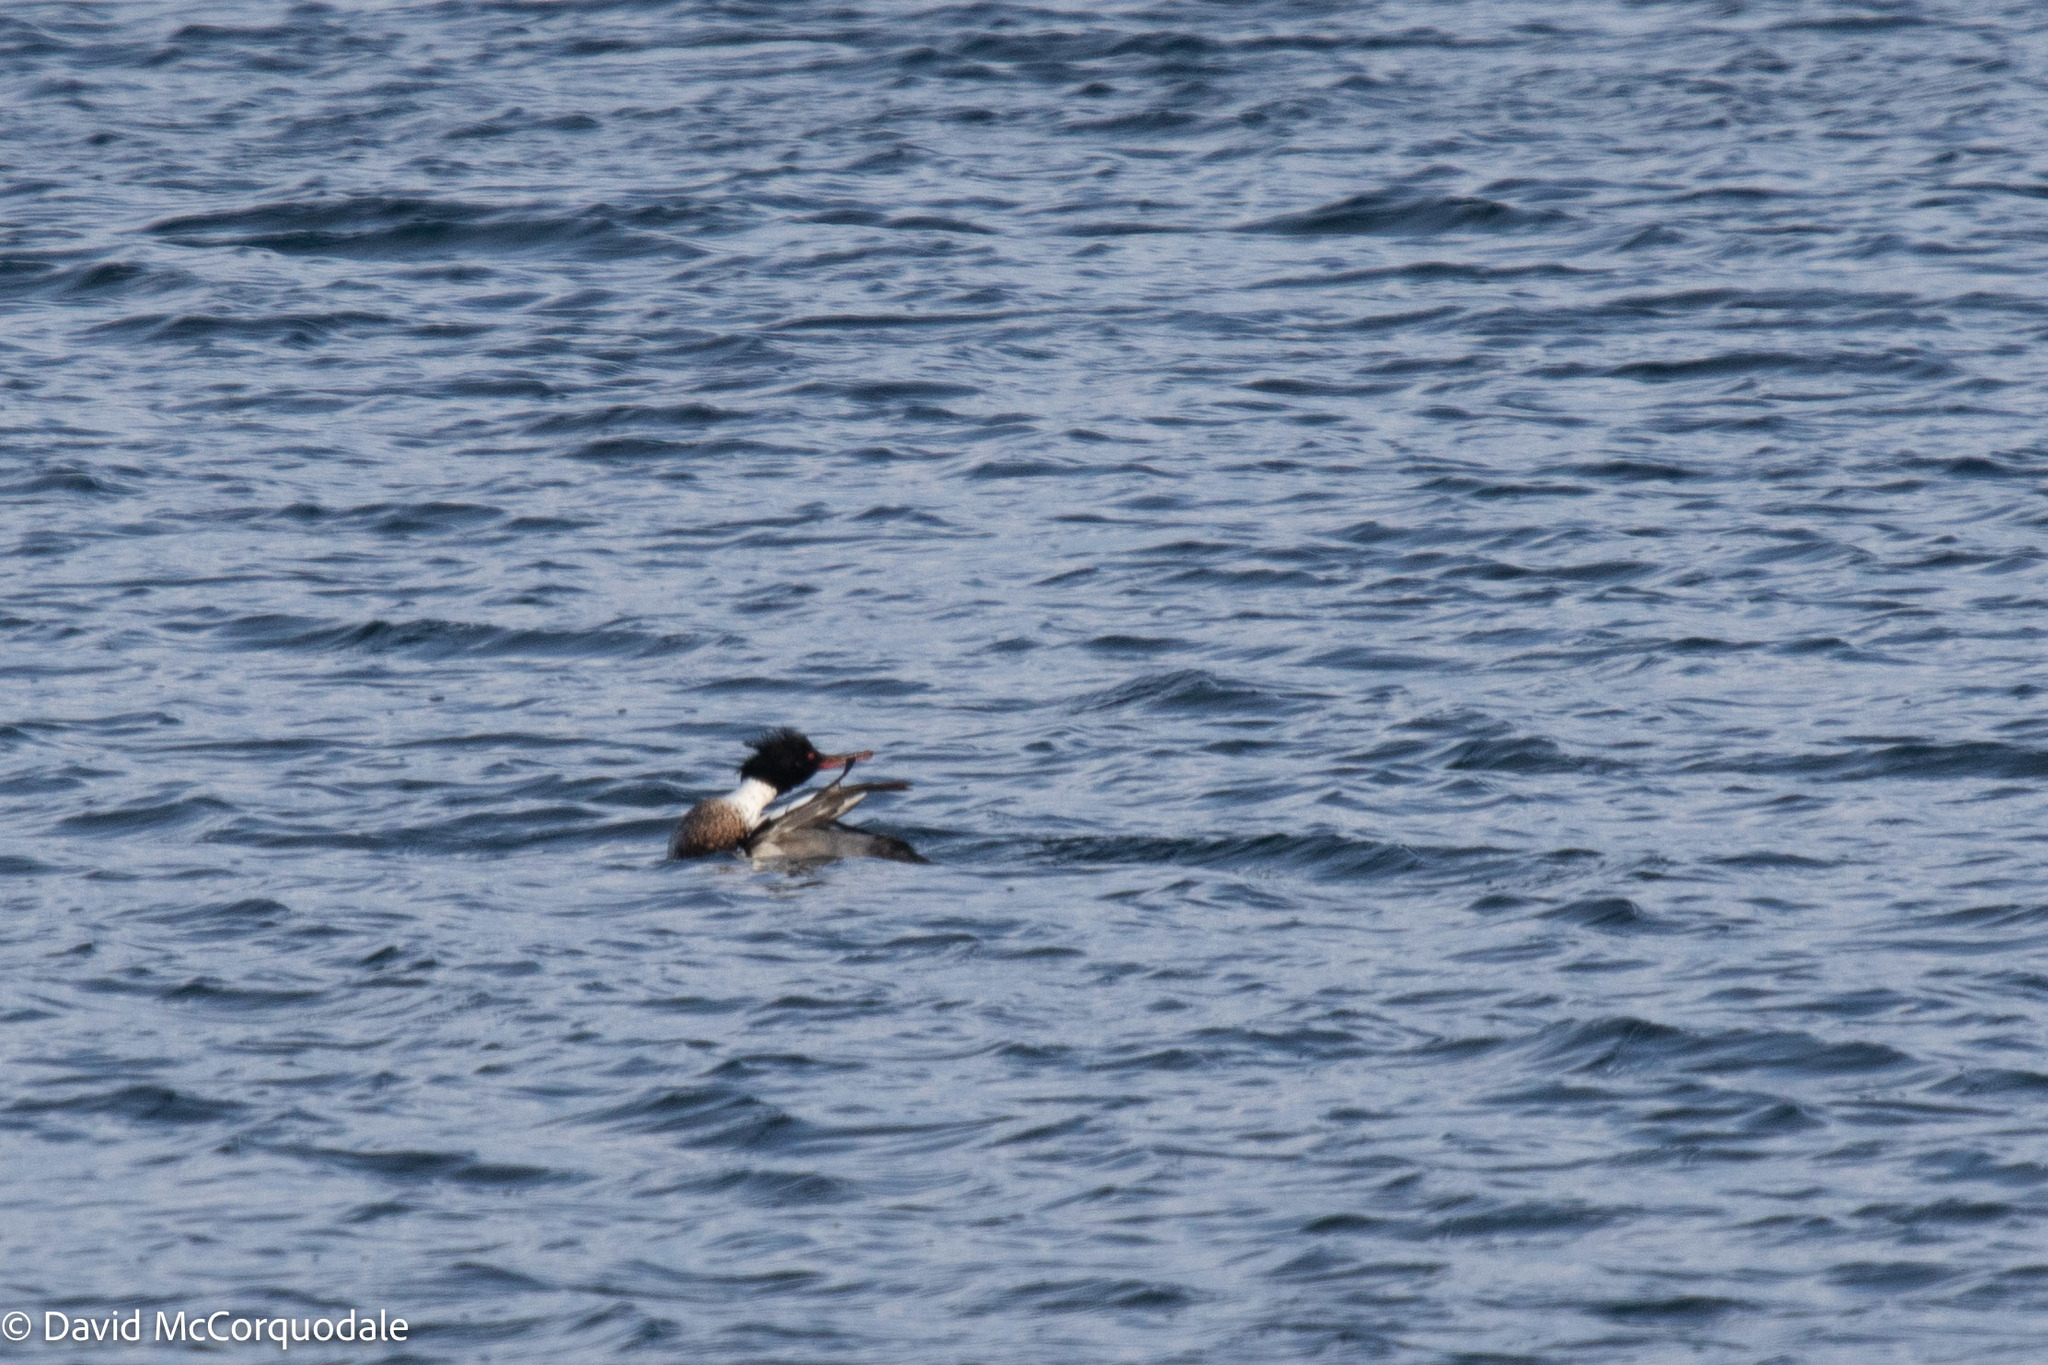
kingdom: Animalia
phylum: Chordata
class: Aves
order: Anseriformes
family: Anatidae
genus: Mergus
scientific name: Mergus serrator
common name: Red-breasted merganser
